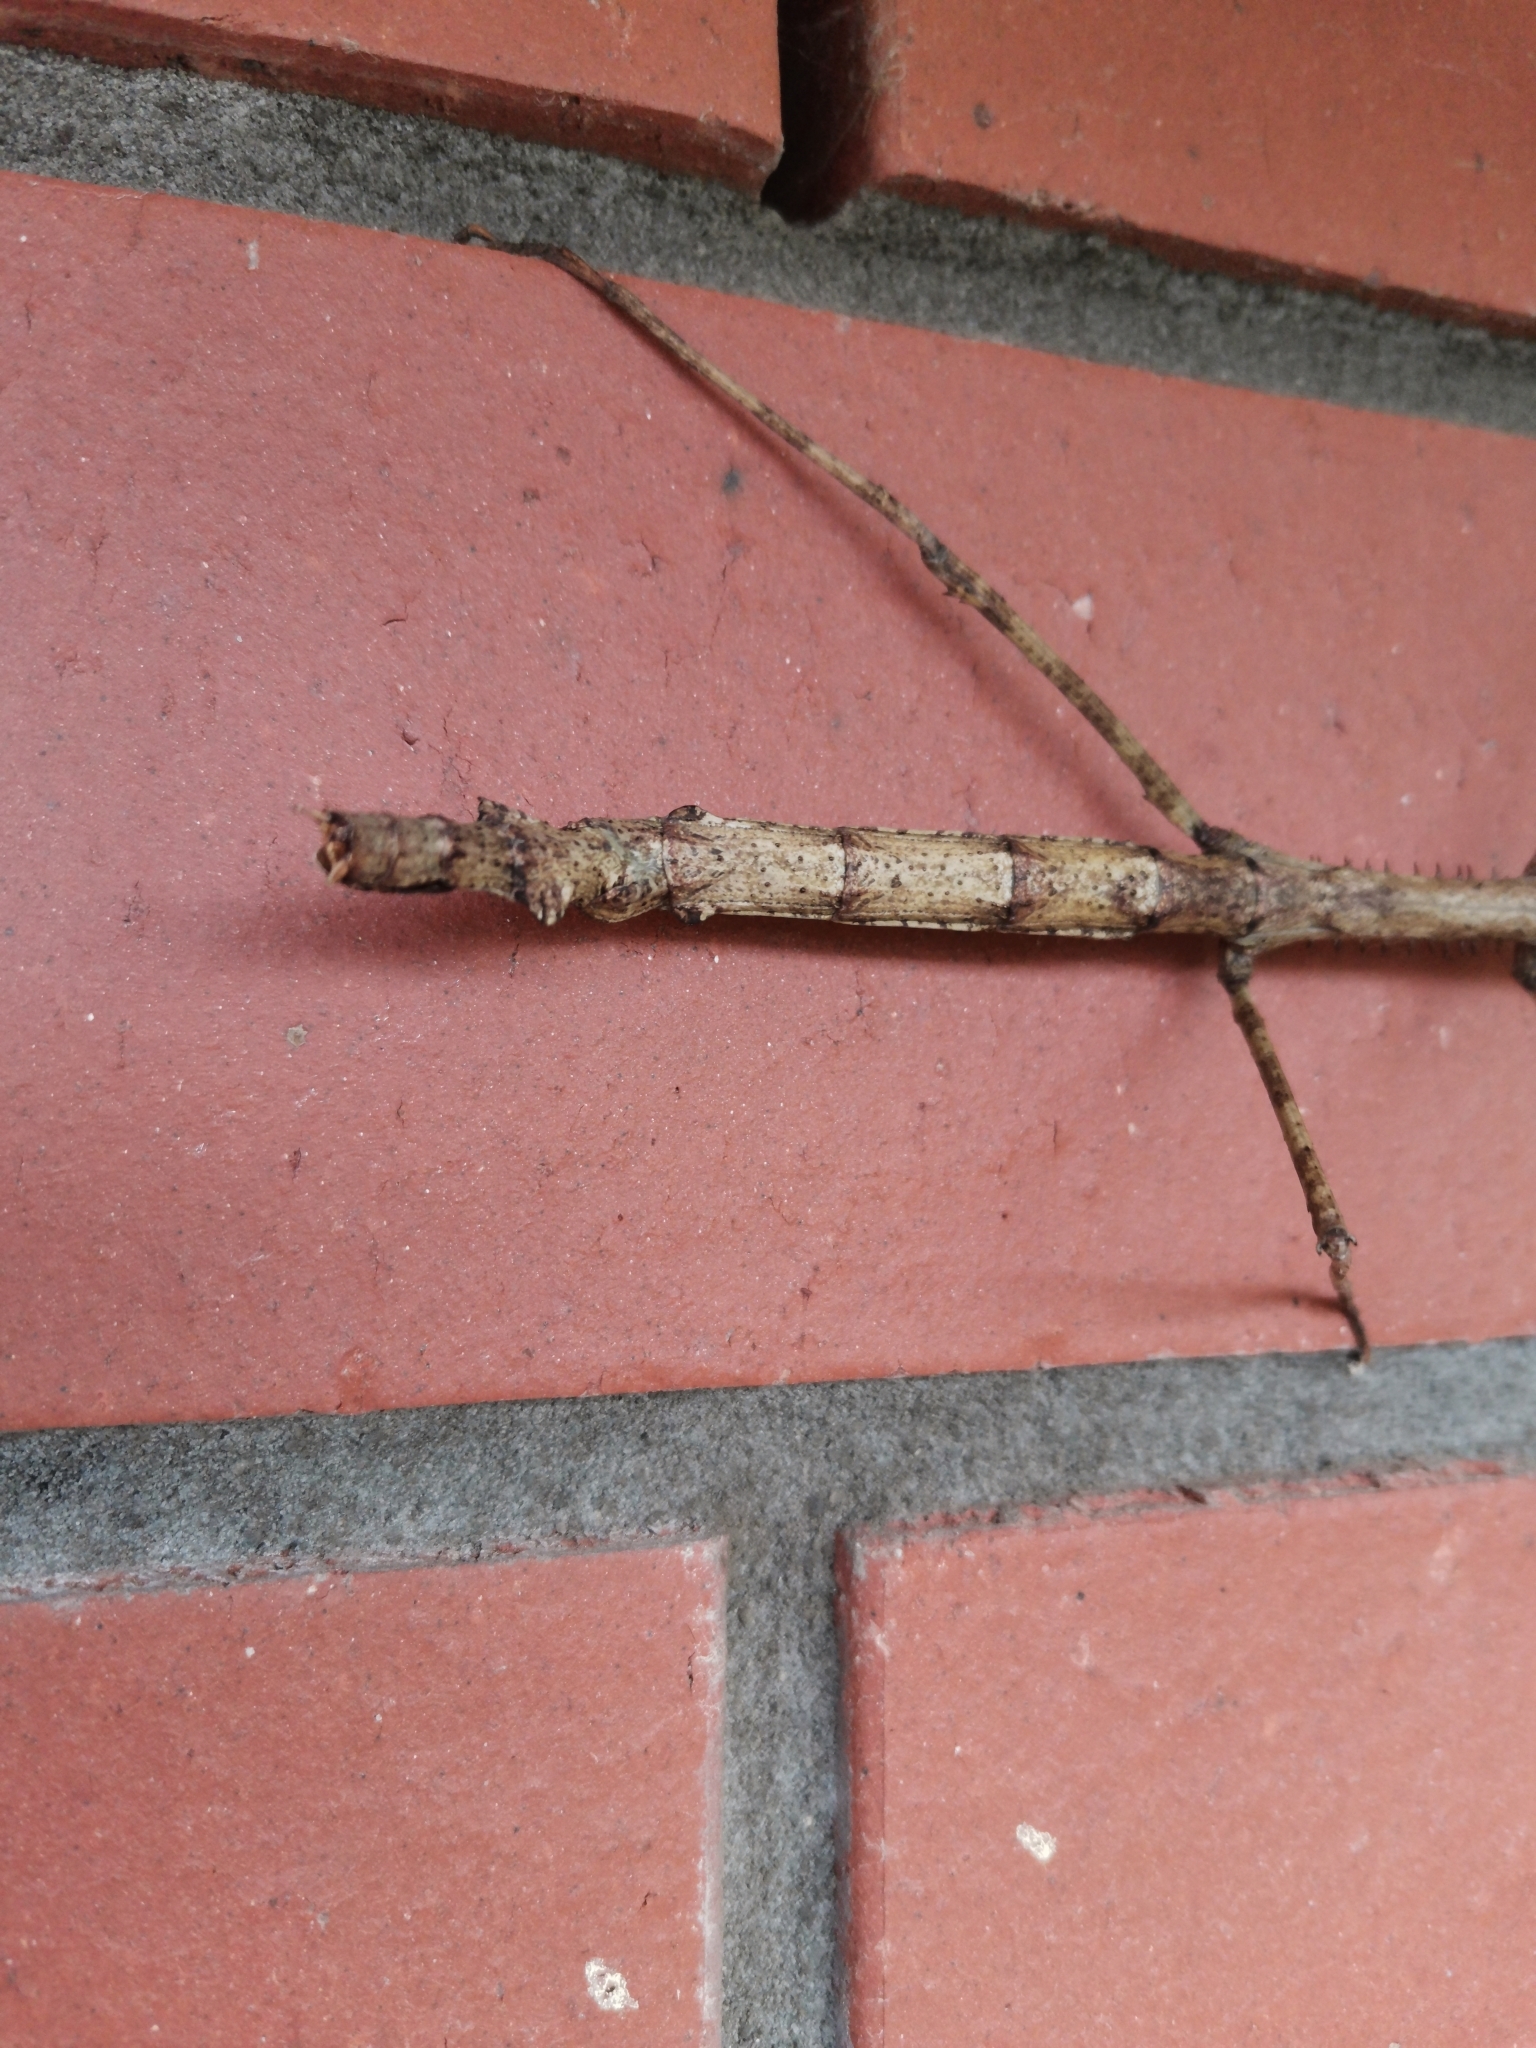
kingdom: Animalia
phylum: Arthropoda
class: Insecta
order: Phasmida
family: Phasmatidae
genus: Argosarchus
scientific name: Argosarchus horridus
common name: Bristly stick insect
